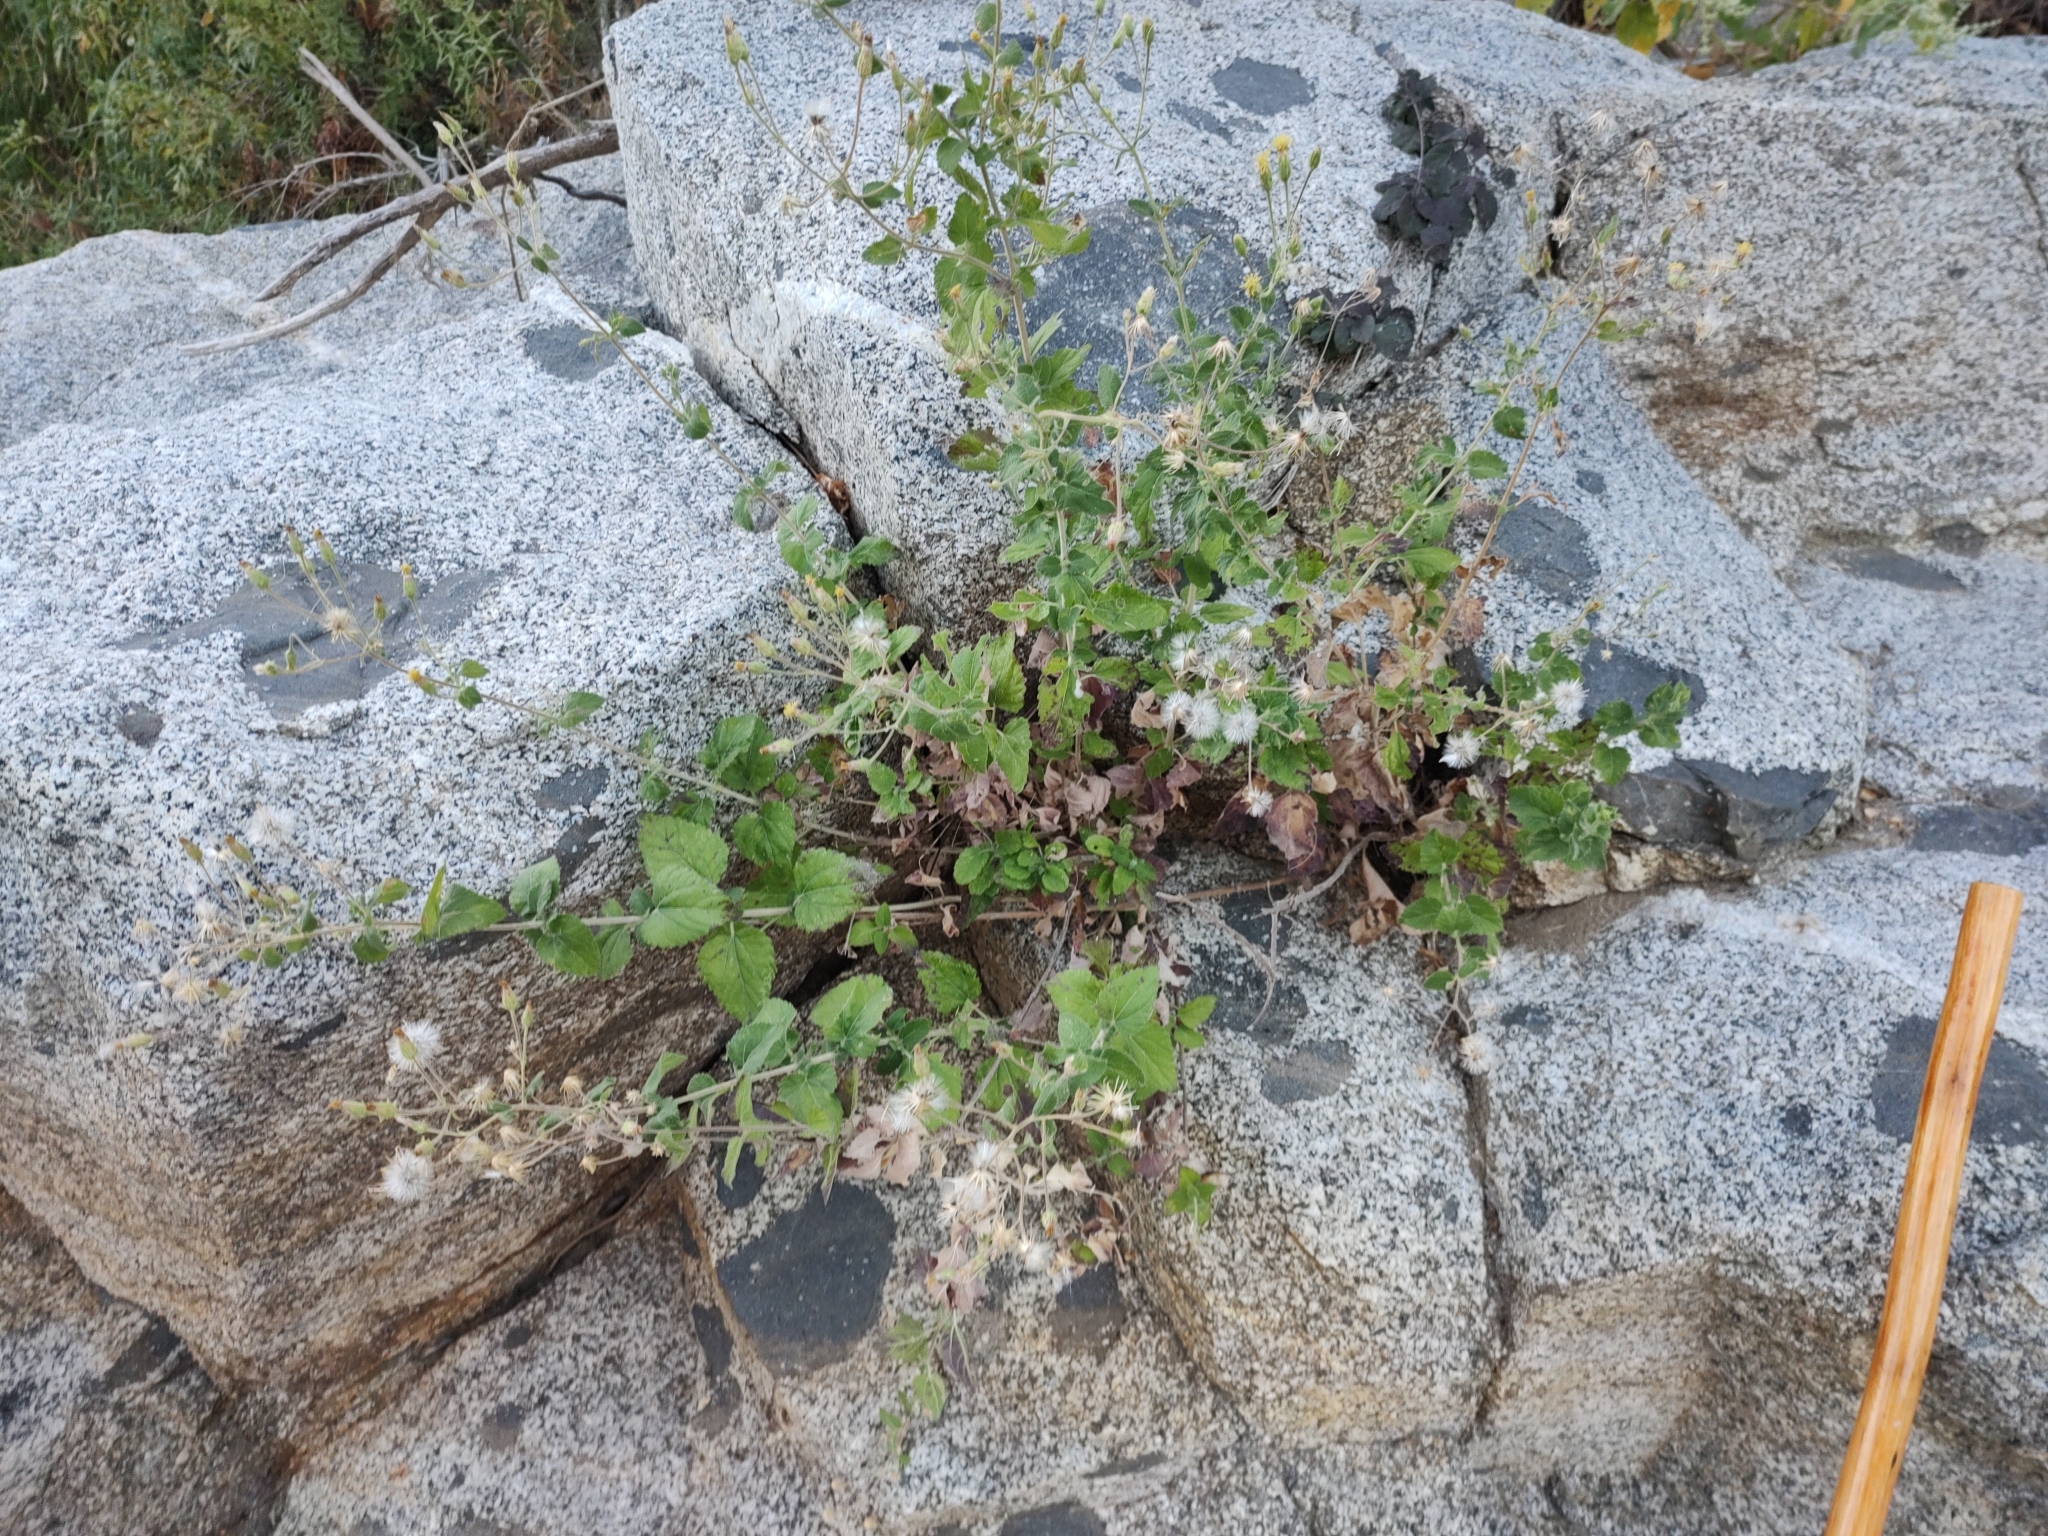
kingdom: Plantae
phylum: Tracheophyta
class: Magnoliopsida
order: Asterales
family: Asteraceae
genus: Brickellia
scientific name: Brickellia peninsularis
